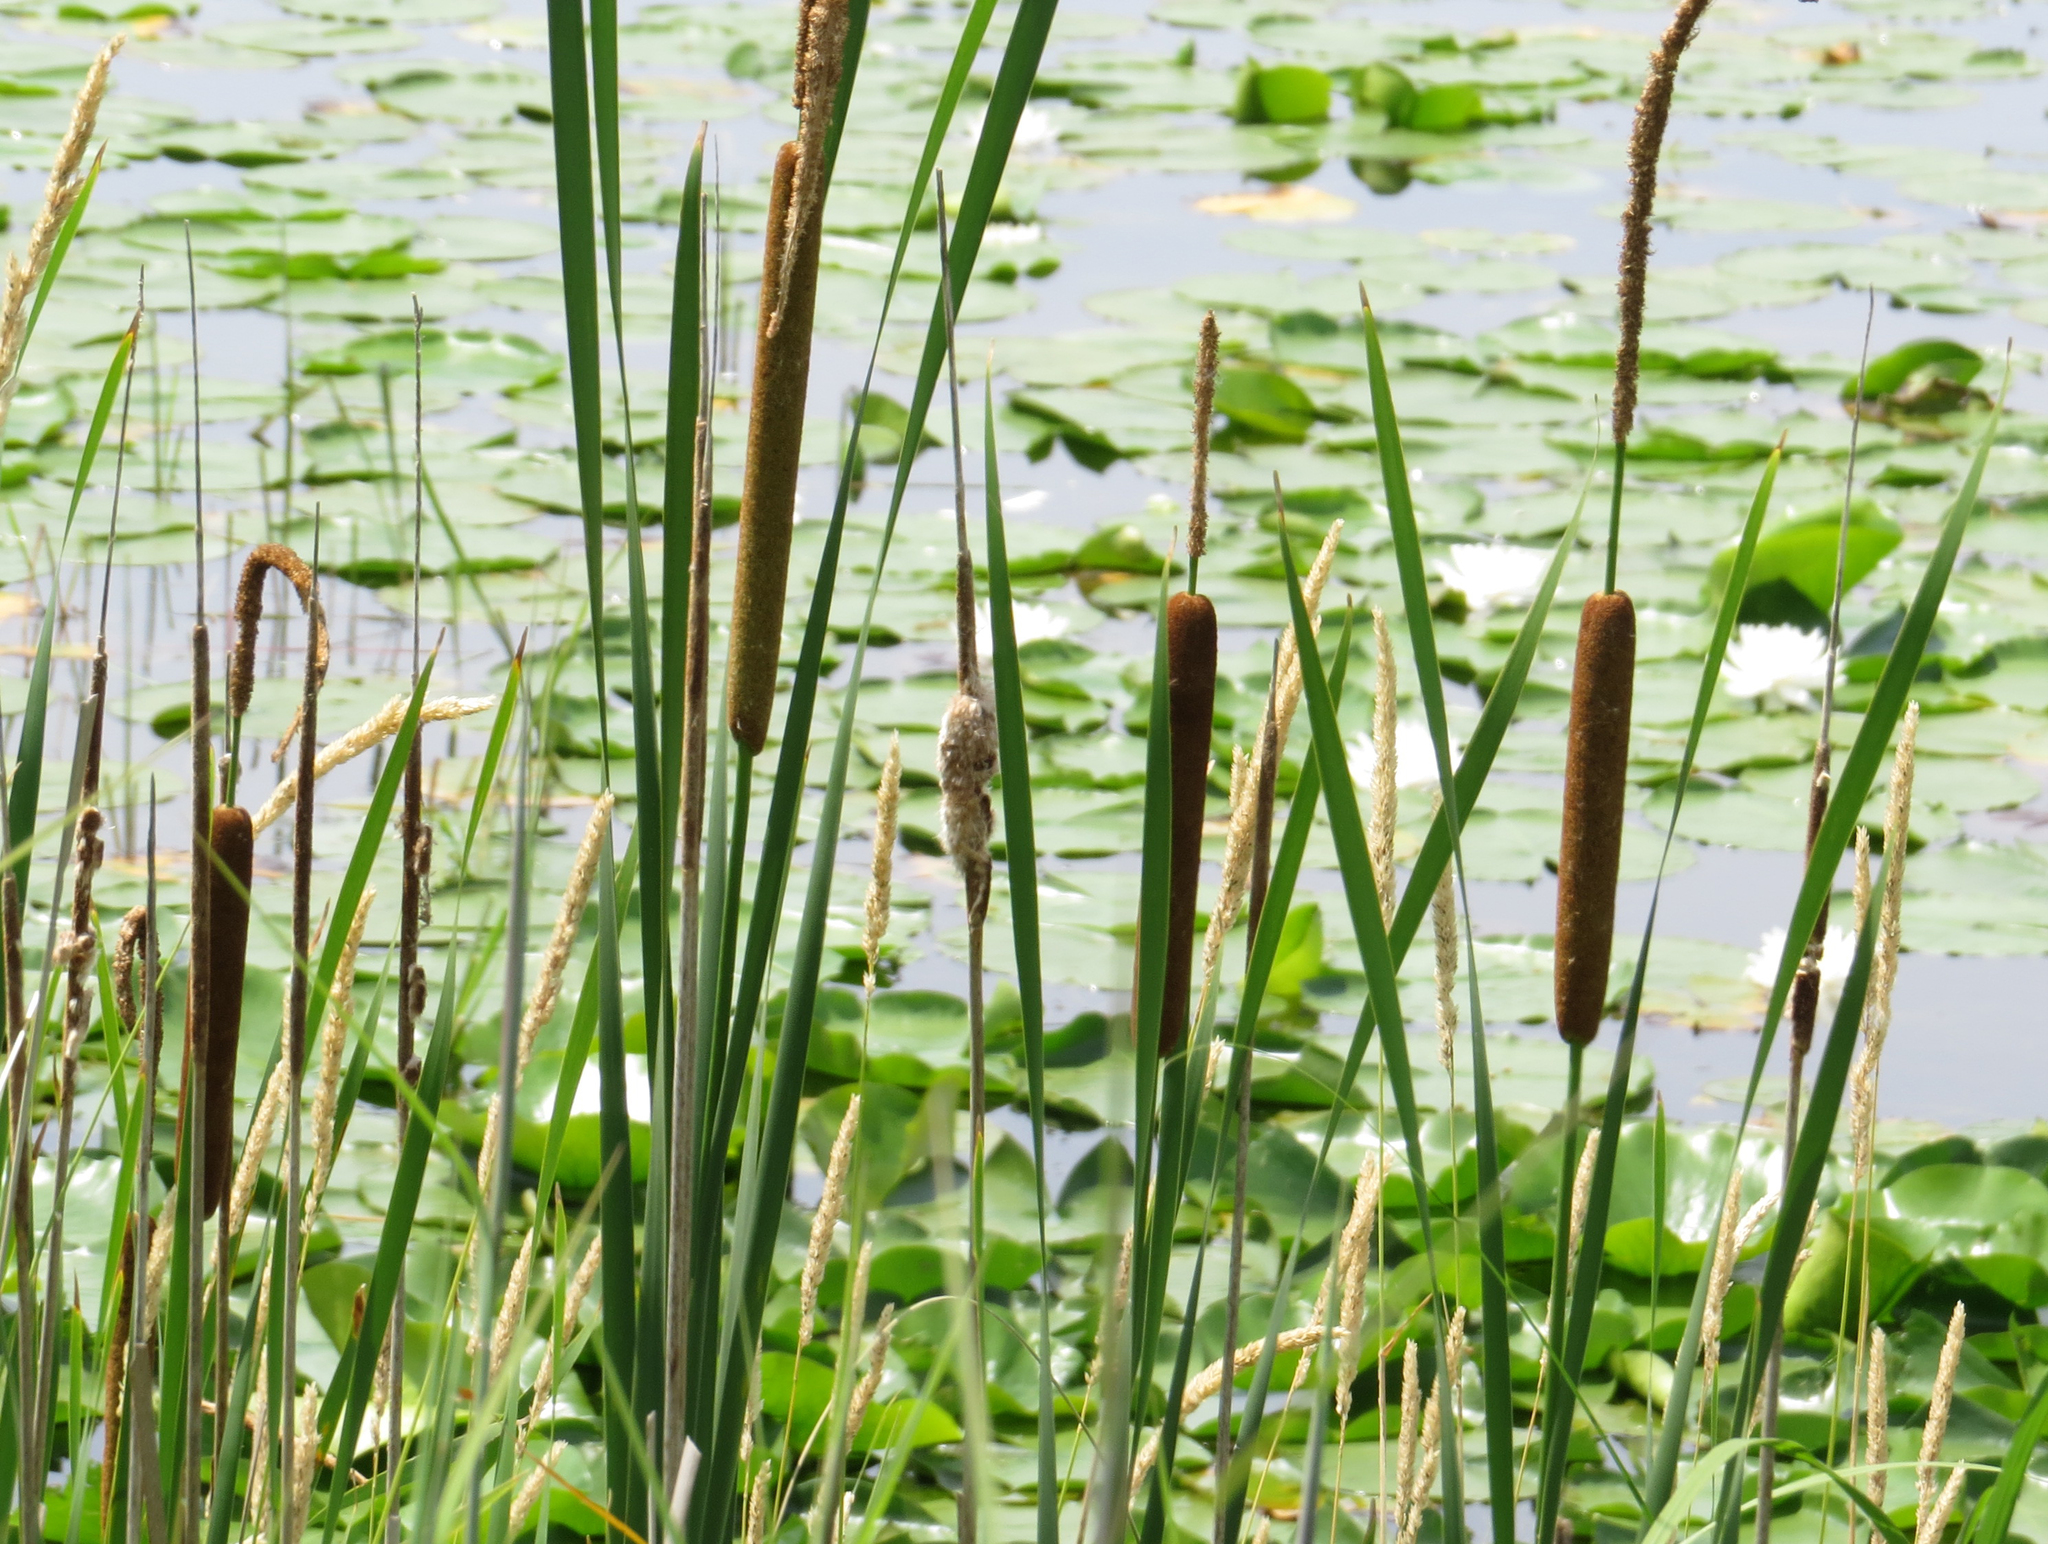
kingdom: Plantae
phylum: Tracheophyta
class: Liliopsida
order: Poales
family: Typhaceae
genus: Typha
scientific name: Typha glauca
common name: Blue cattail
